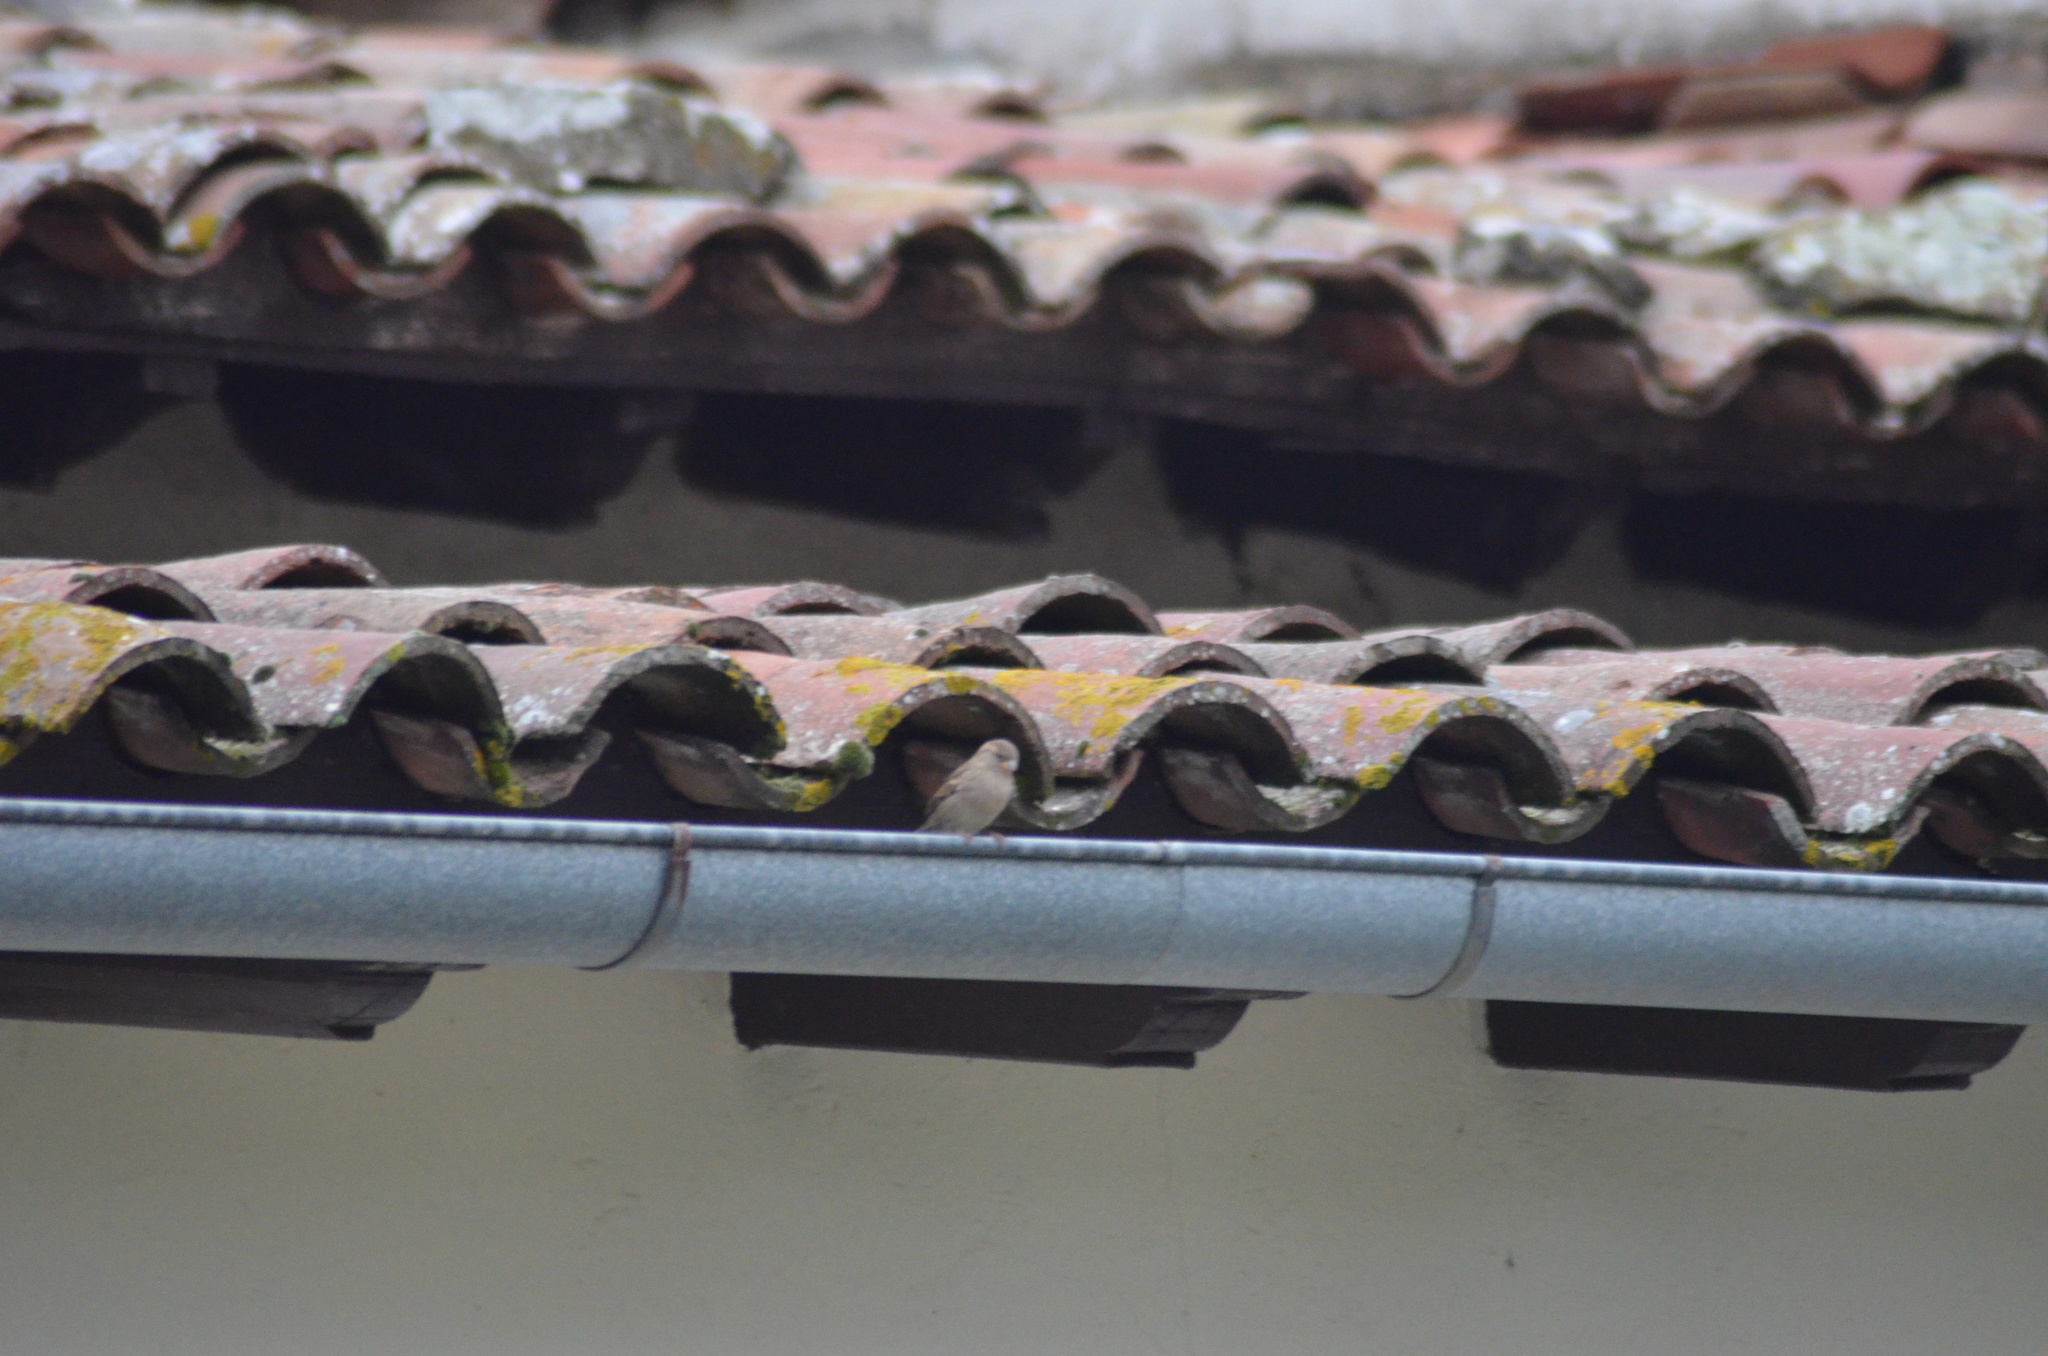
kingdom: Animalia
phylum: Chordata
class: Aves
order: Passeriformes
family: Passeridae
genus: Passer
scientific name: Passer domesticus
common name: House sparrow
